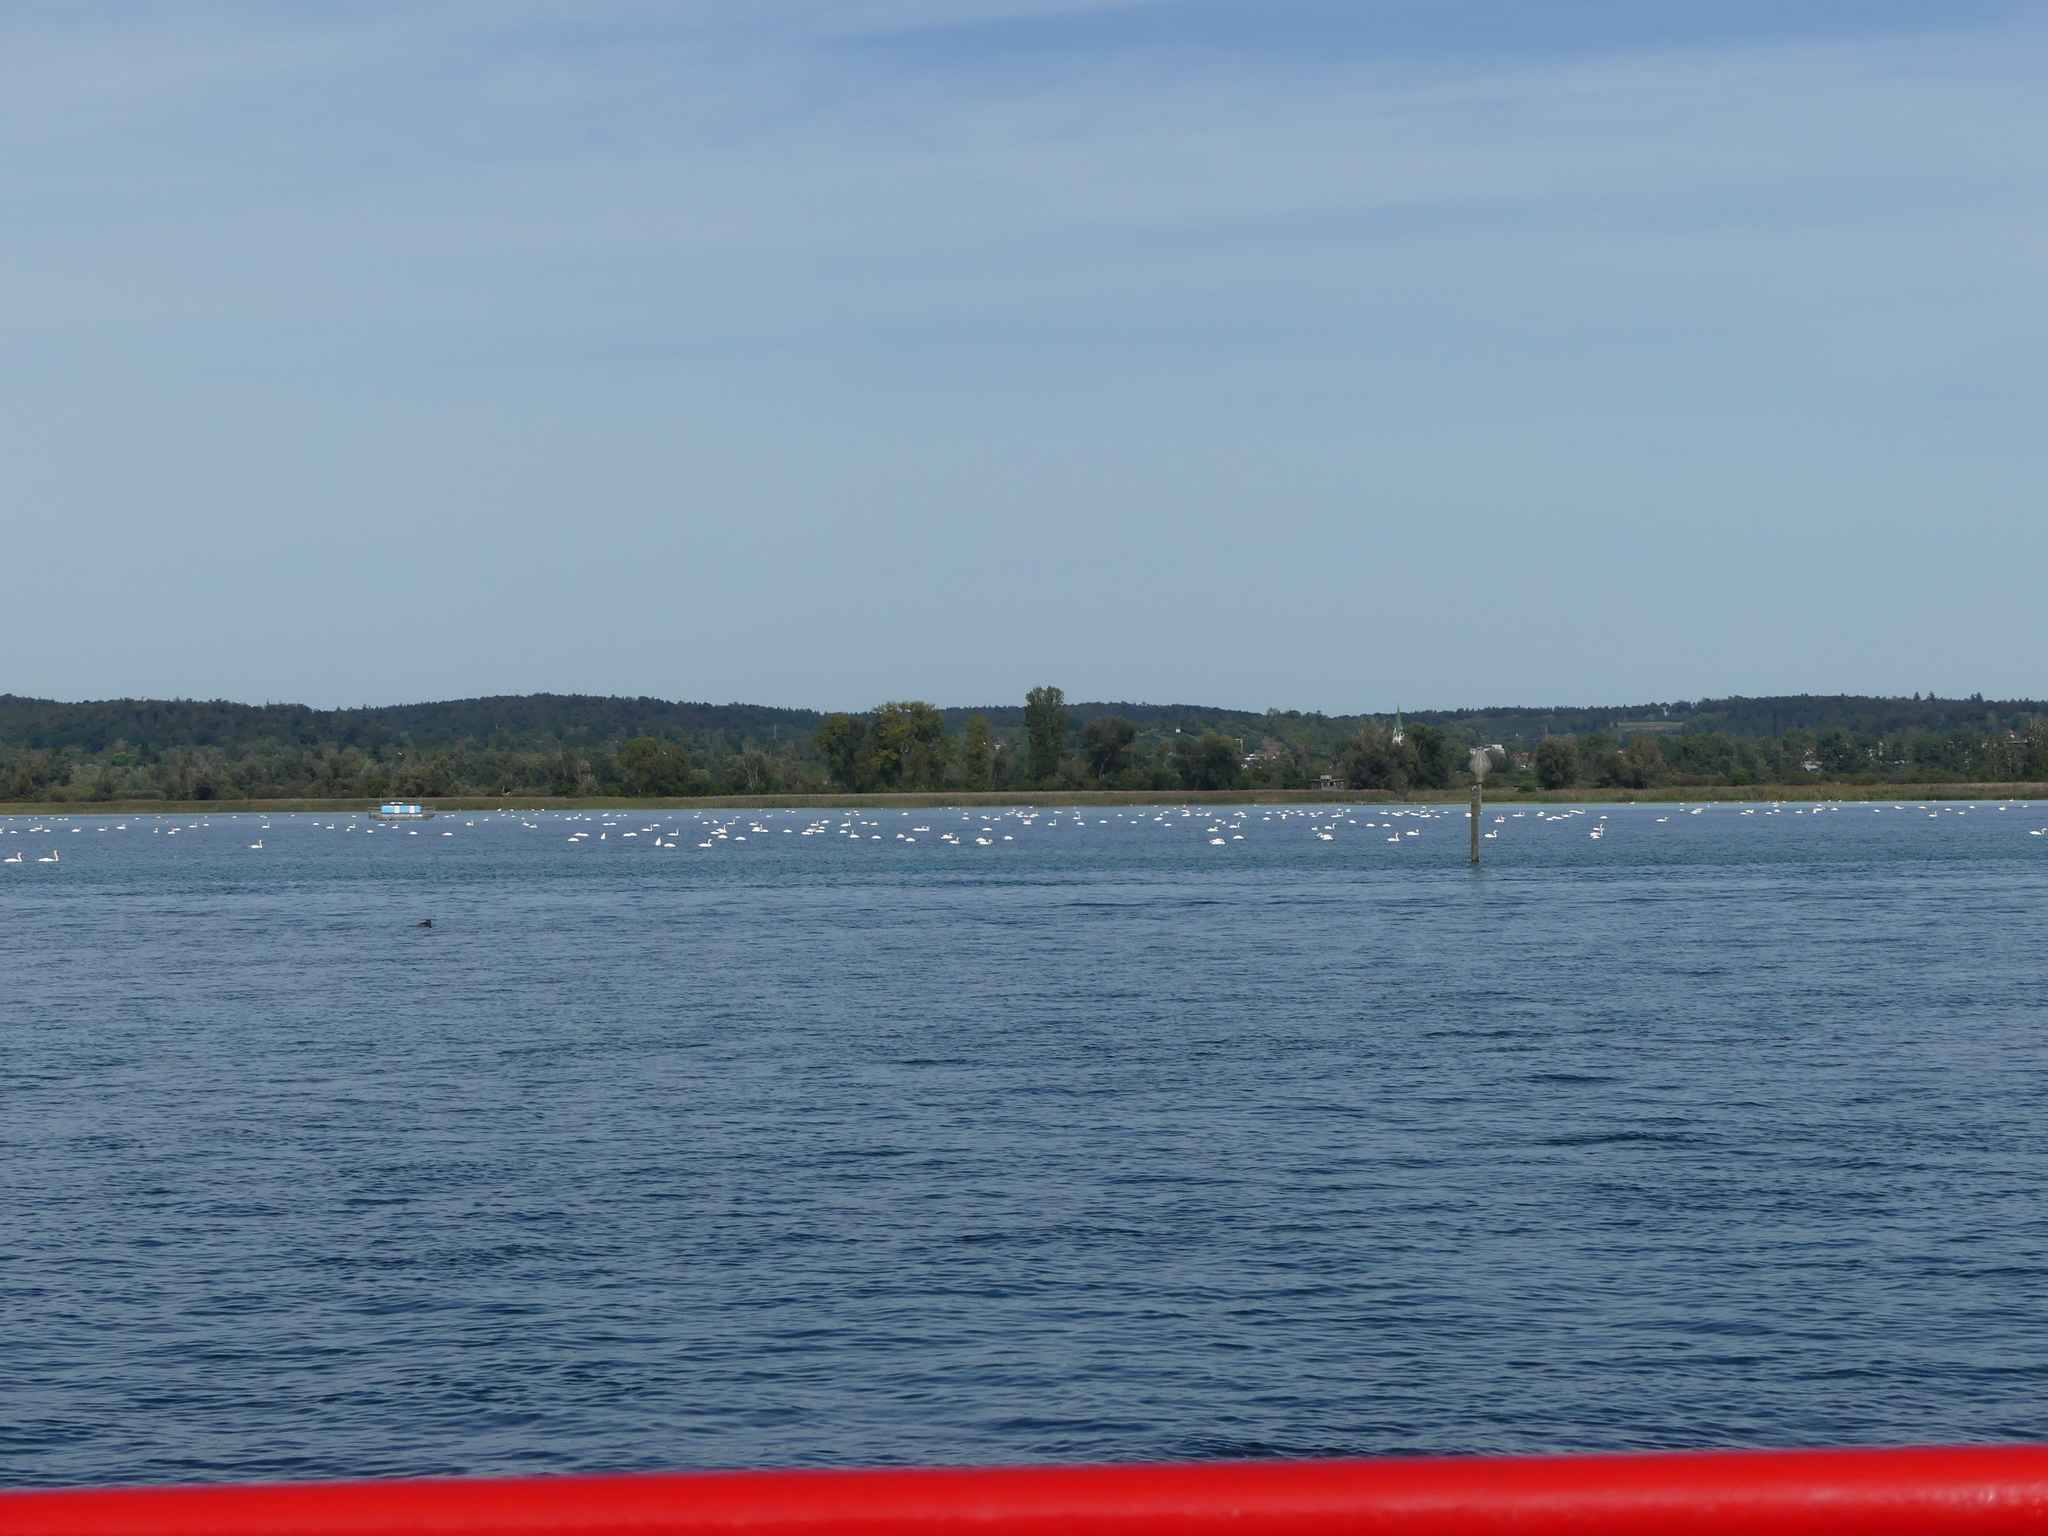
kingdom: Animalia
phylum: Chordata
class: Aves
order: Anseriformes
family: Anatidae
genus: Cygnus
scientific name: Cygnus olor
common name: Mute swan
